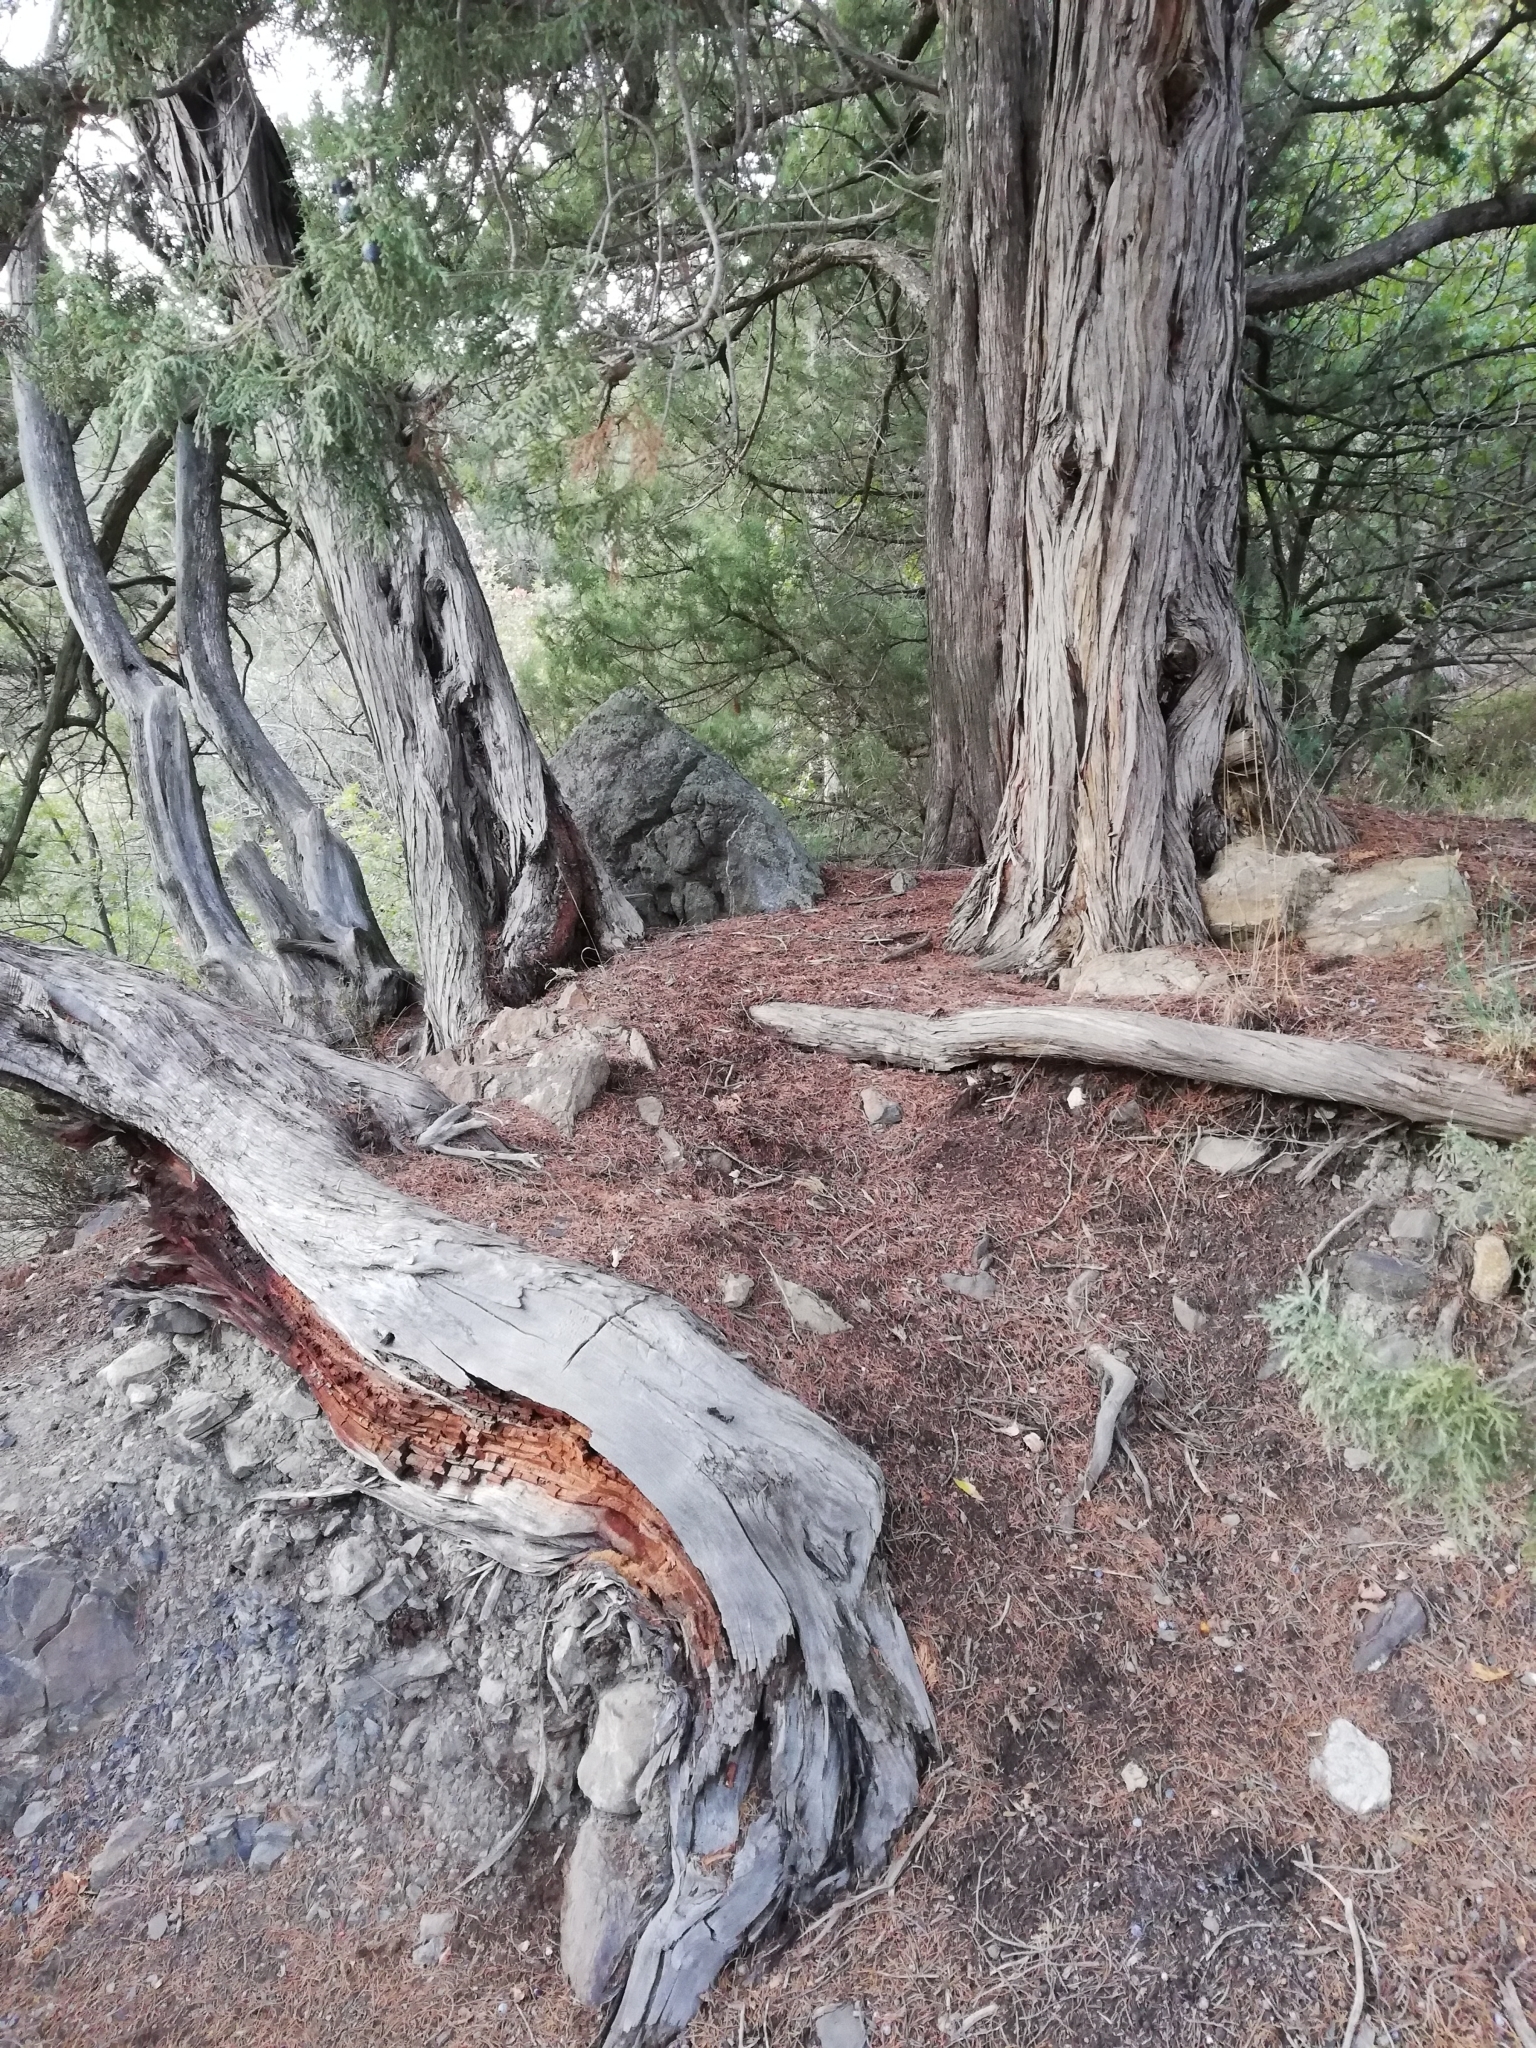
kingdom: Plantae
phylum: Tracheophyta
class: Pinopsida
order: Pinales
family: Cupressaceae
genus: Juniperus
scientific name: Juniperus excelsa
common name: Crimean juniper
